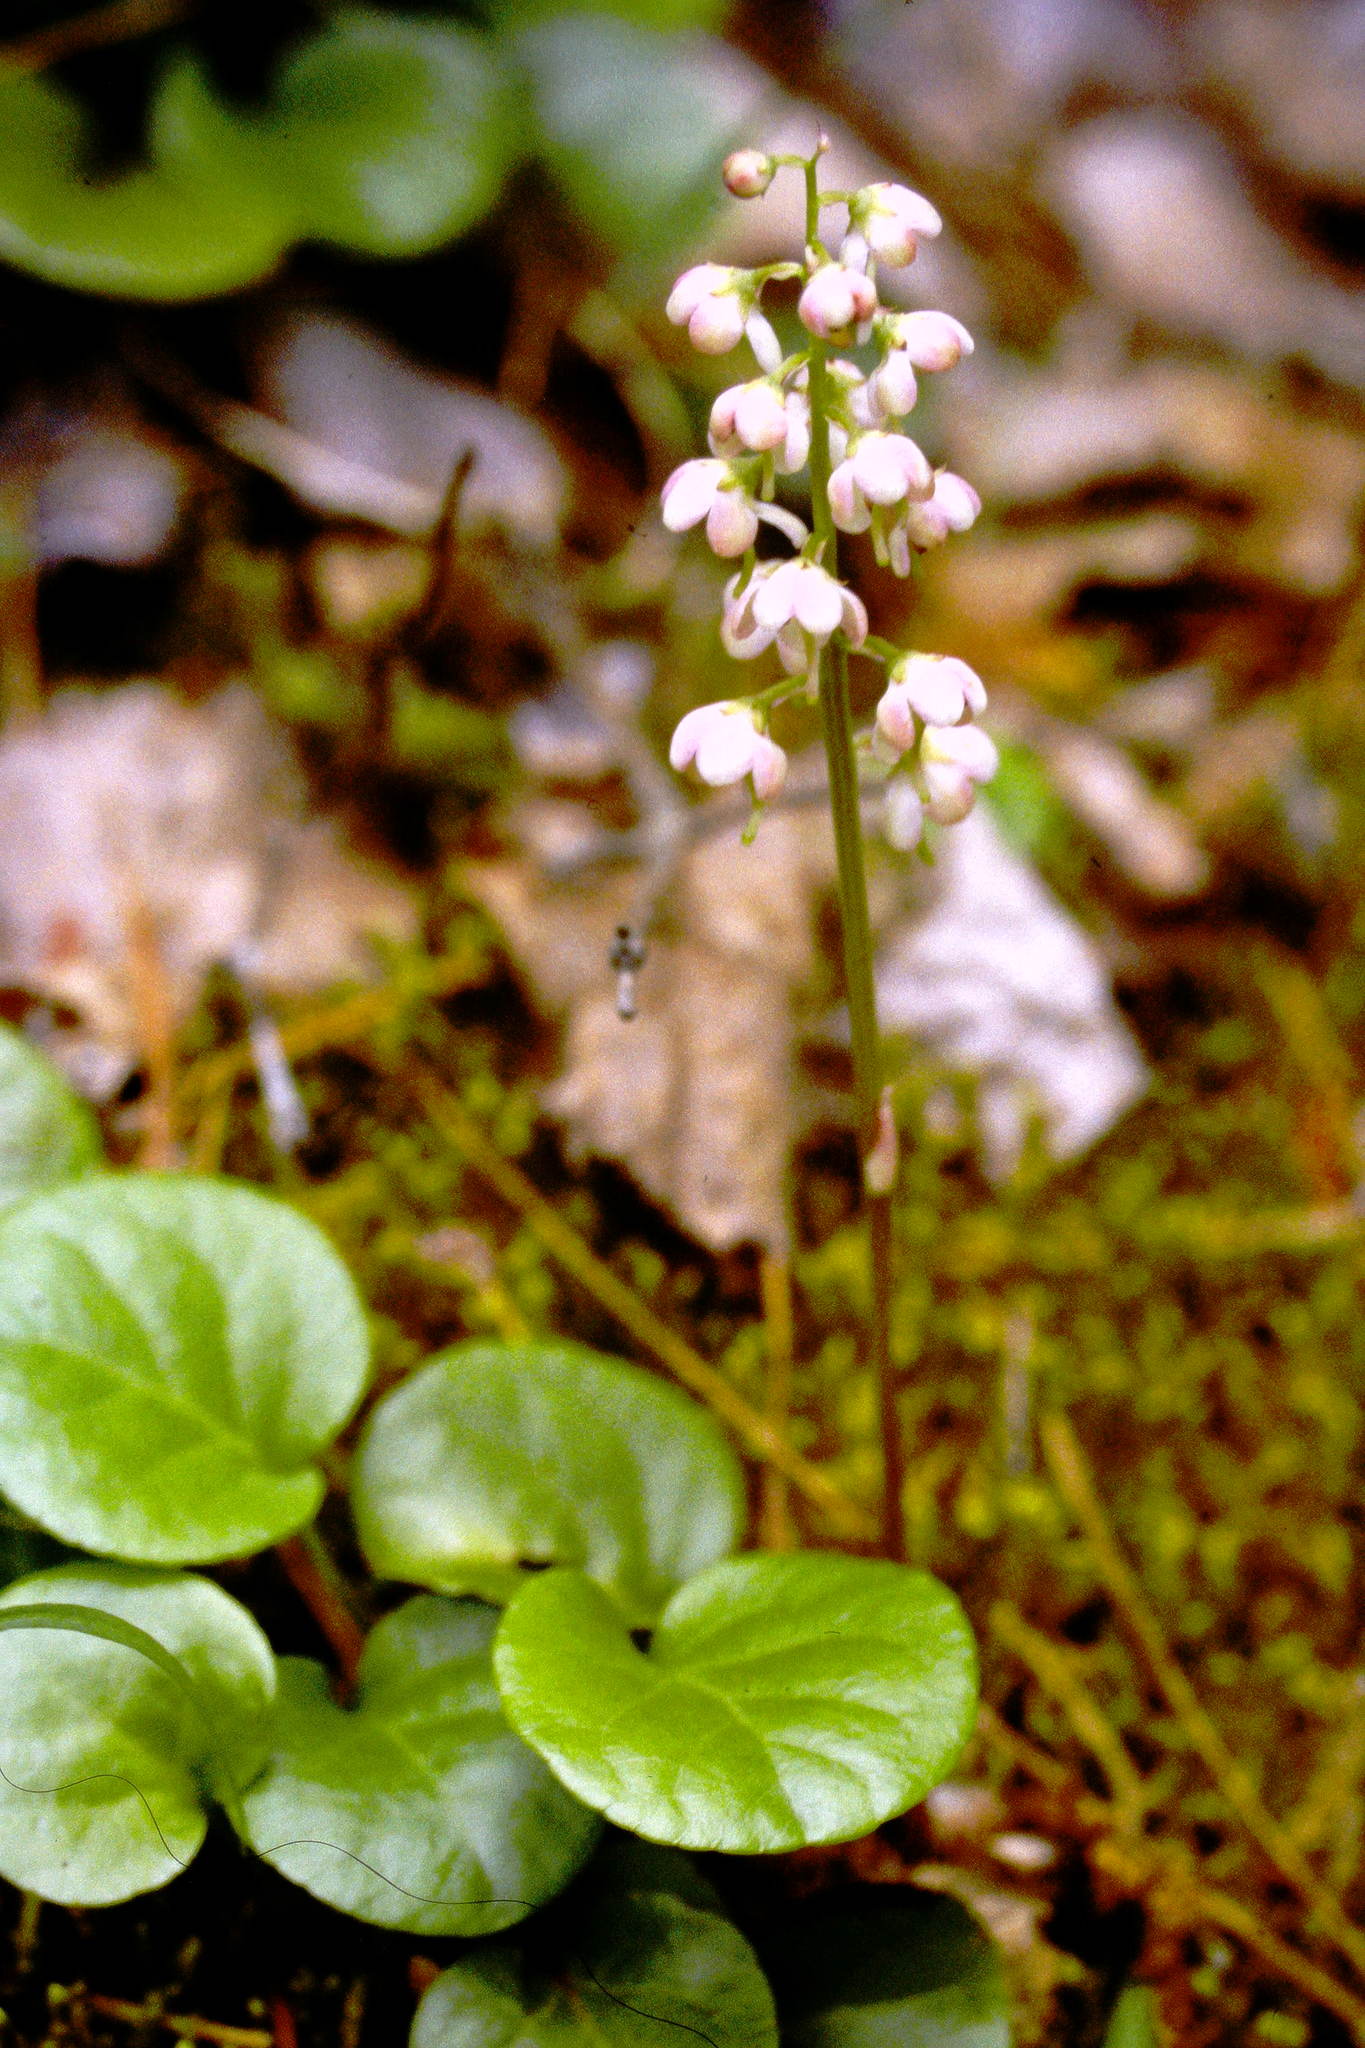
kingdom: Plantae
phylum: Tracheophyta
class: Magnoliopsida
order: Ericales
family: Ericaceae
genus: Pyrola
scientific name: Pyrola asarifolia
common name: Bog wintergreen
